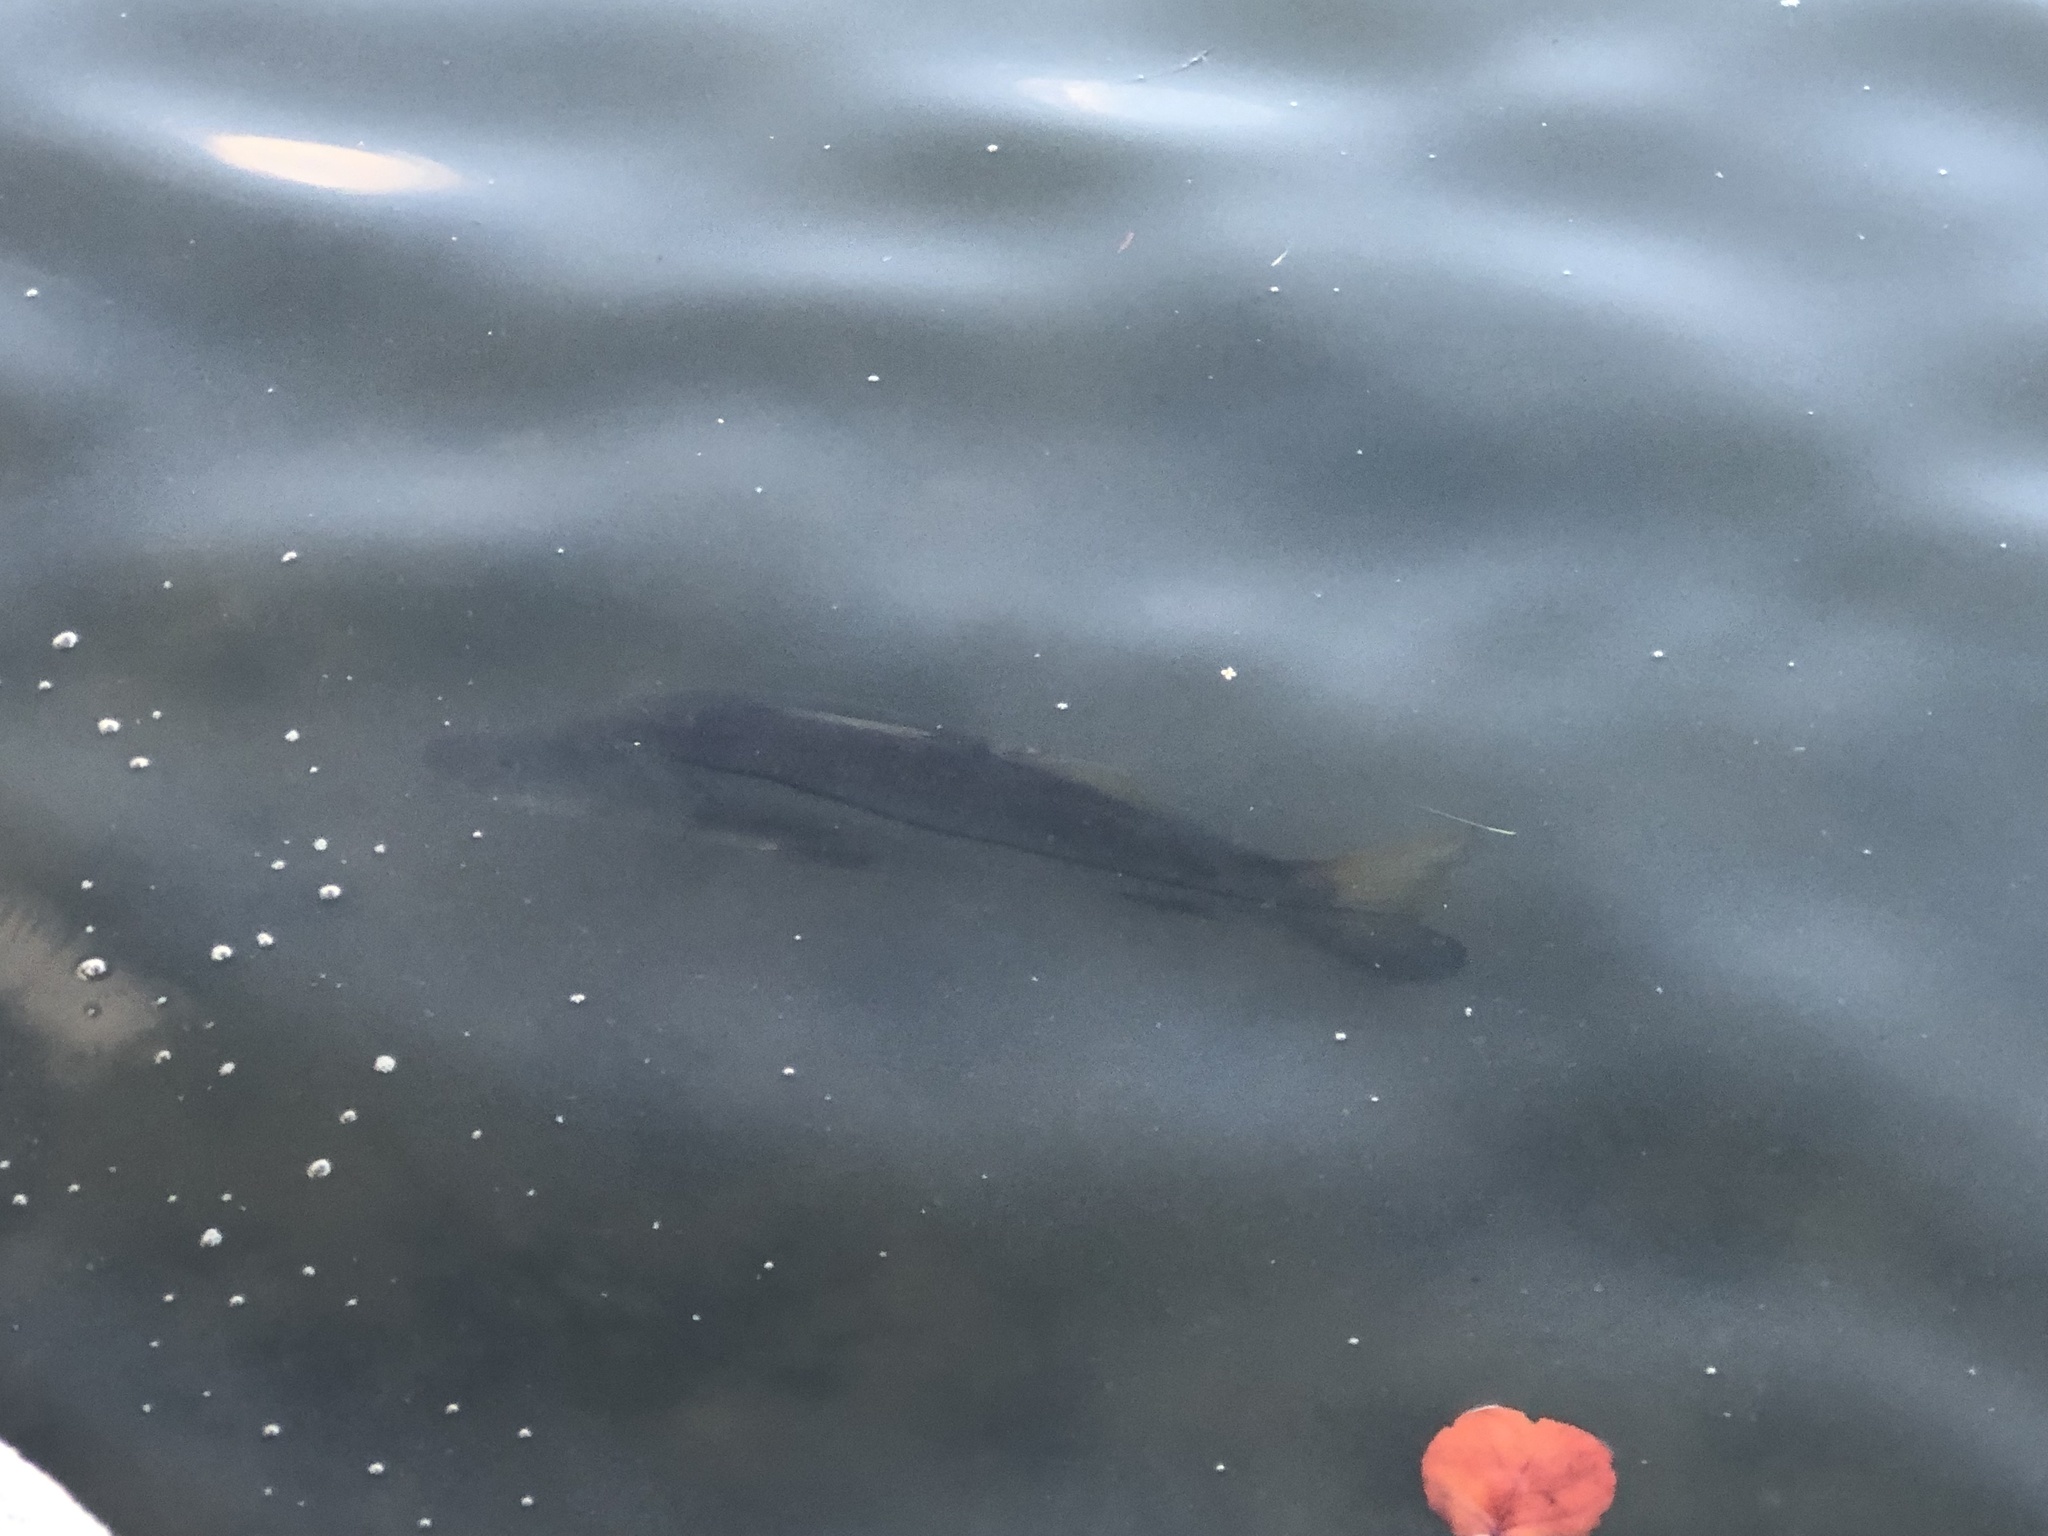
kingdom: Animalia
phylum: Chordata
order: Perciformes
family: Centropomidae
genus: Centropomus
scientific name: Centropomus undecimalis
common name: Snook
